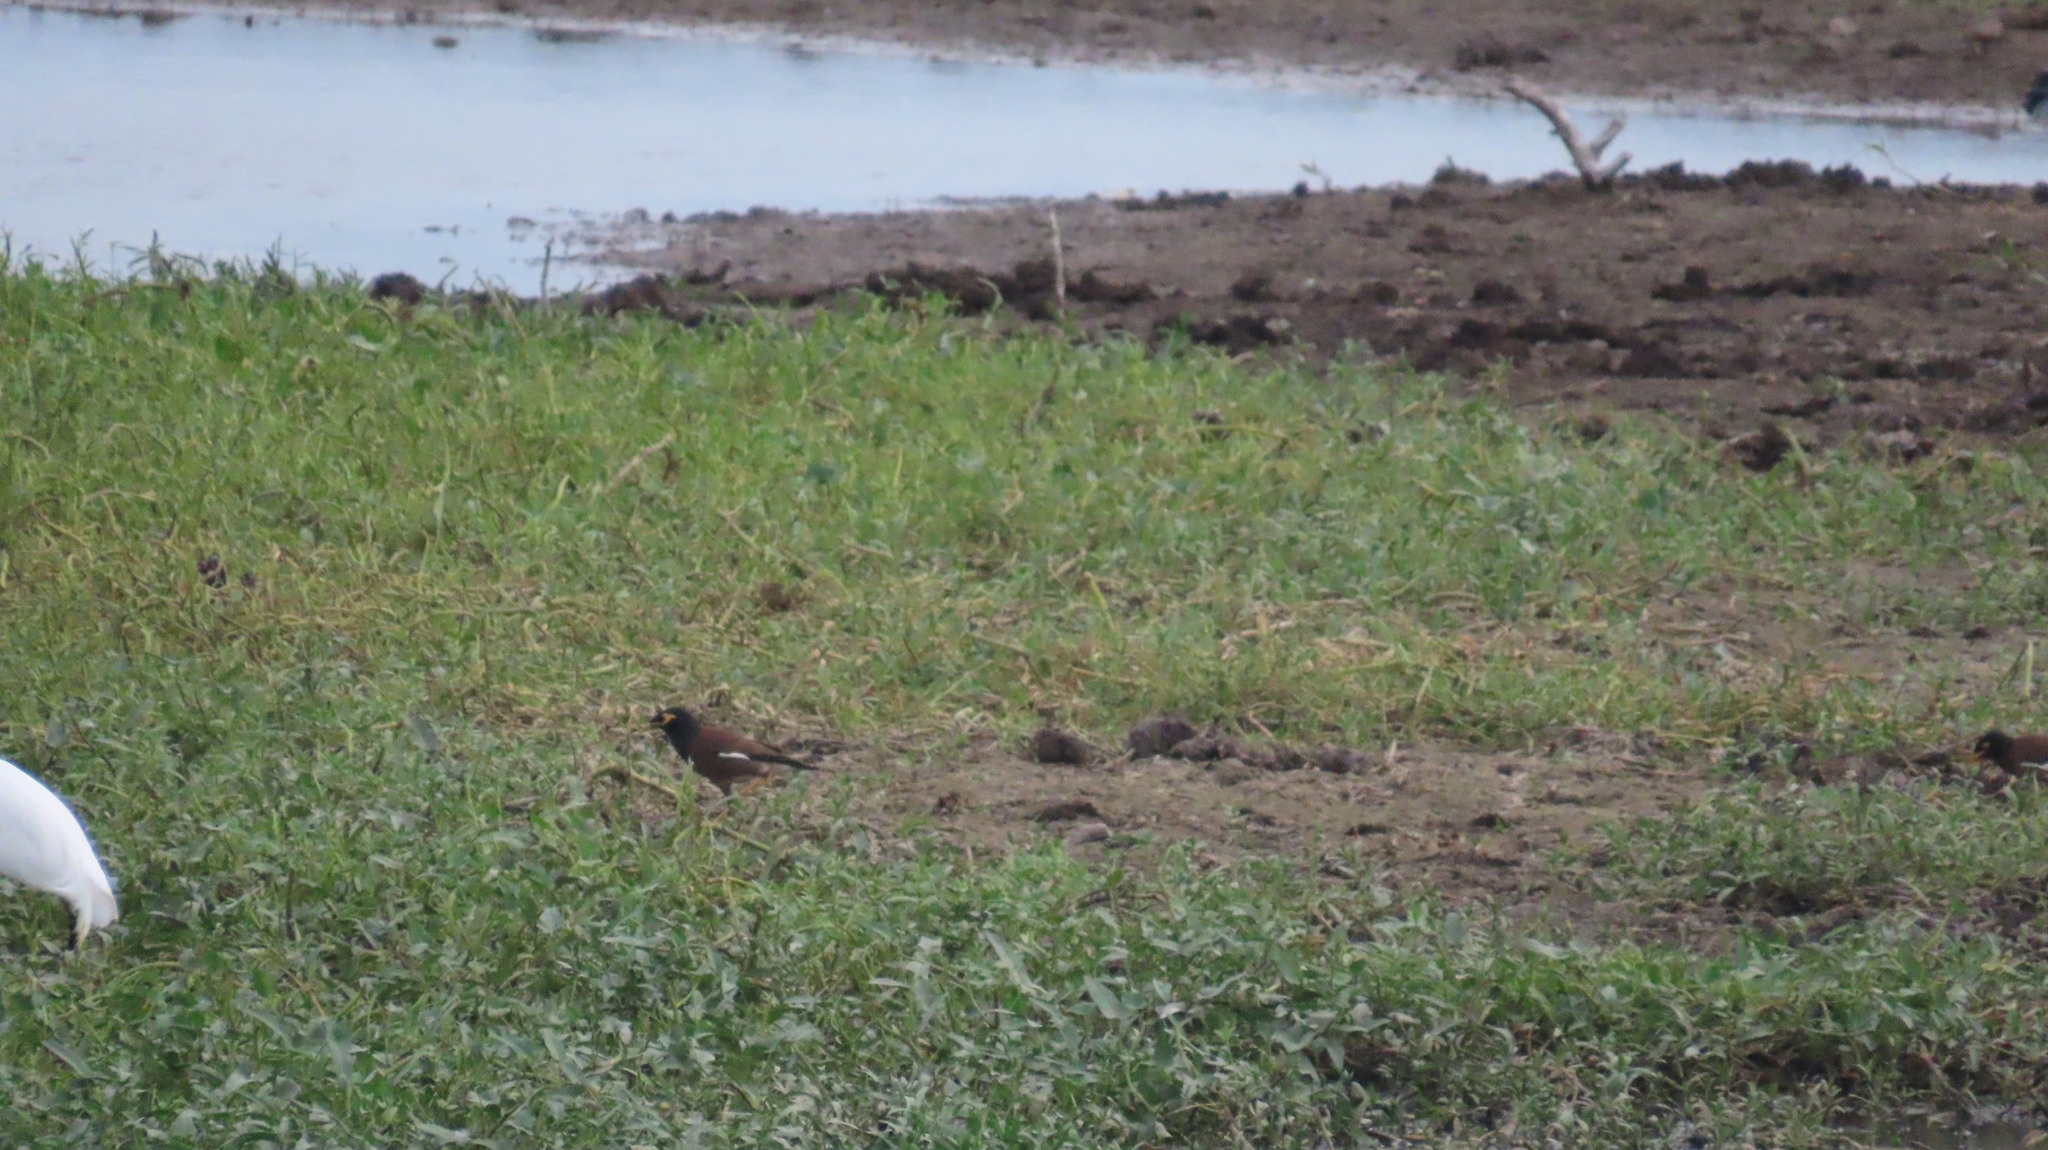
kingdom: Animalia
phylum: Chordata
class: Aves
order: Passeriformes
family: Sturnidae
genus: Acridotheres
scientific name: Acridotheres tristis
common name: Common myna
